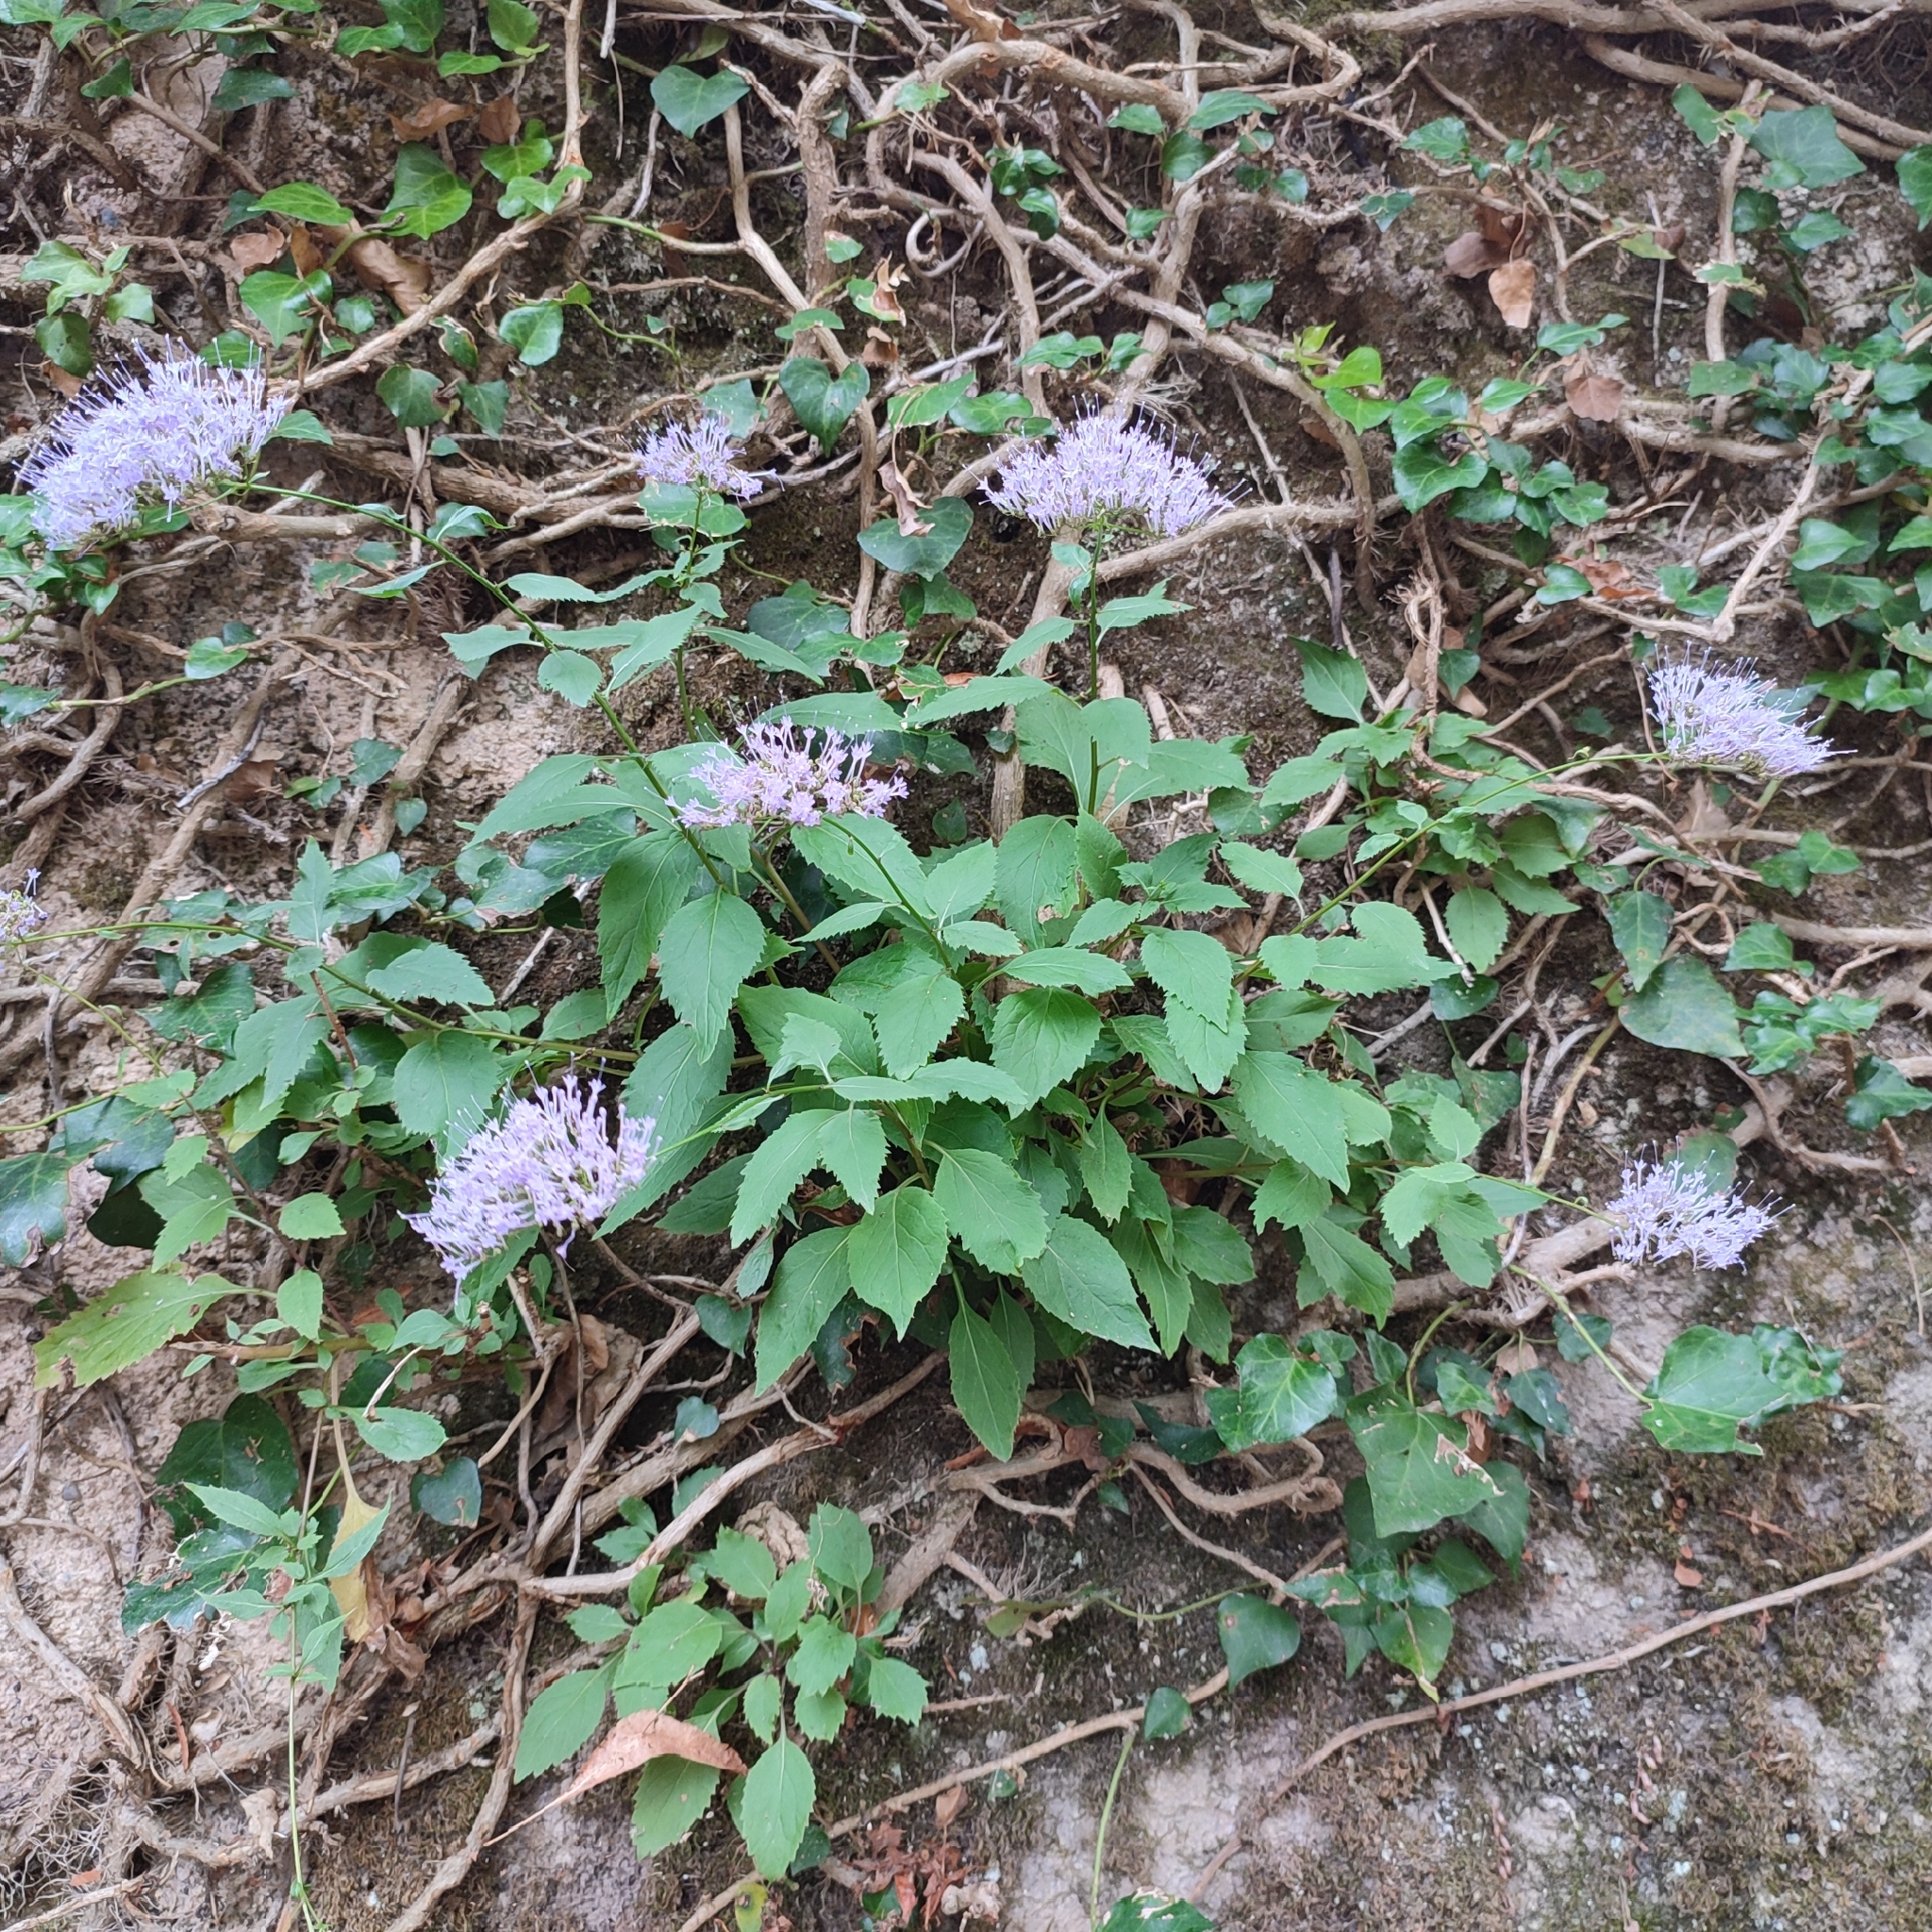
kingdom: Plantae
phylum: Tracheophyta
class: Magnoliopsida
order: Asterales
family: Campanulaceae
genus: Trachelium
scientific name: Trachelium caeruleum
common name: Throatwort
